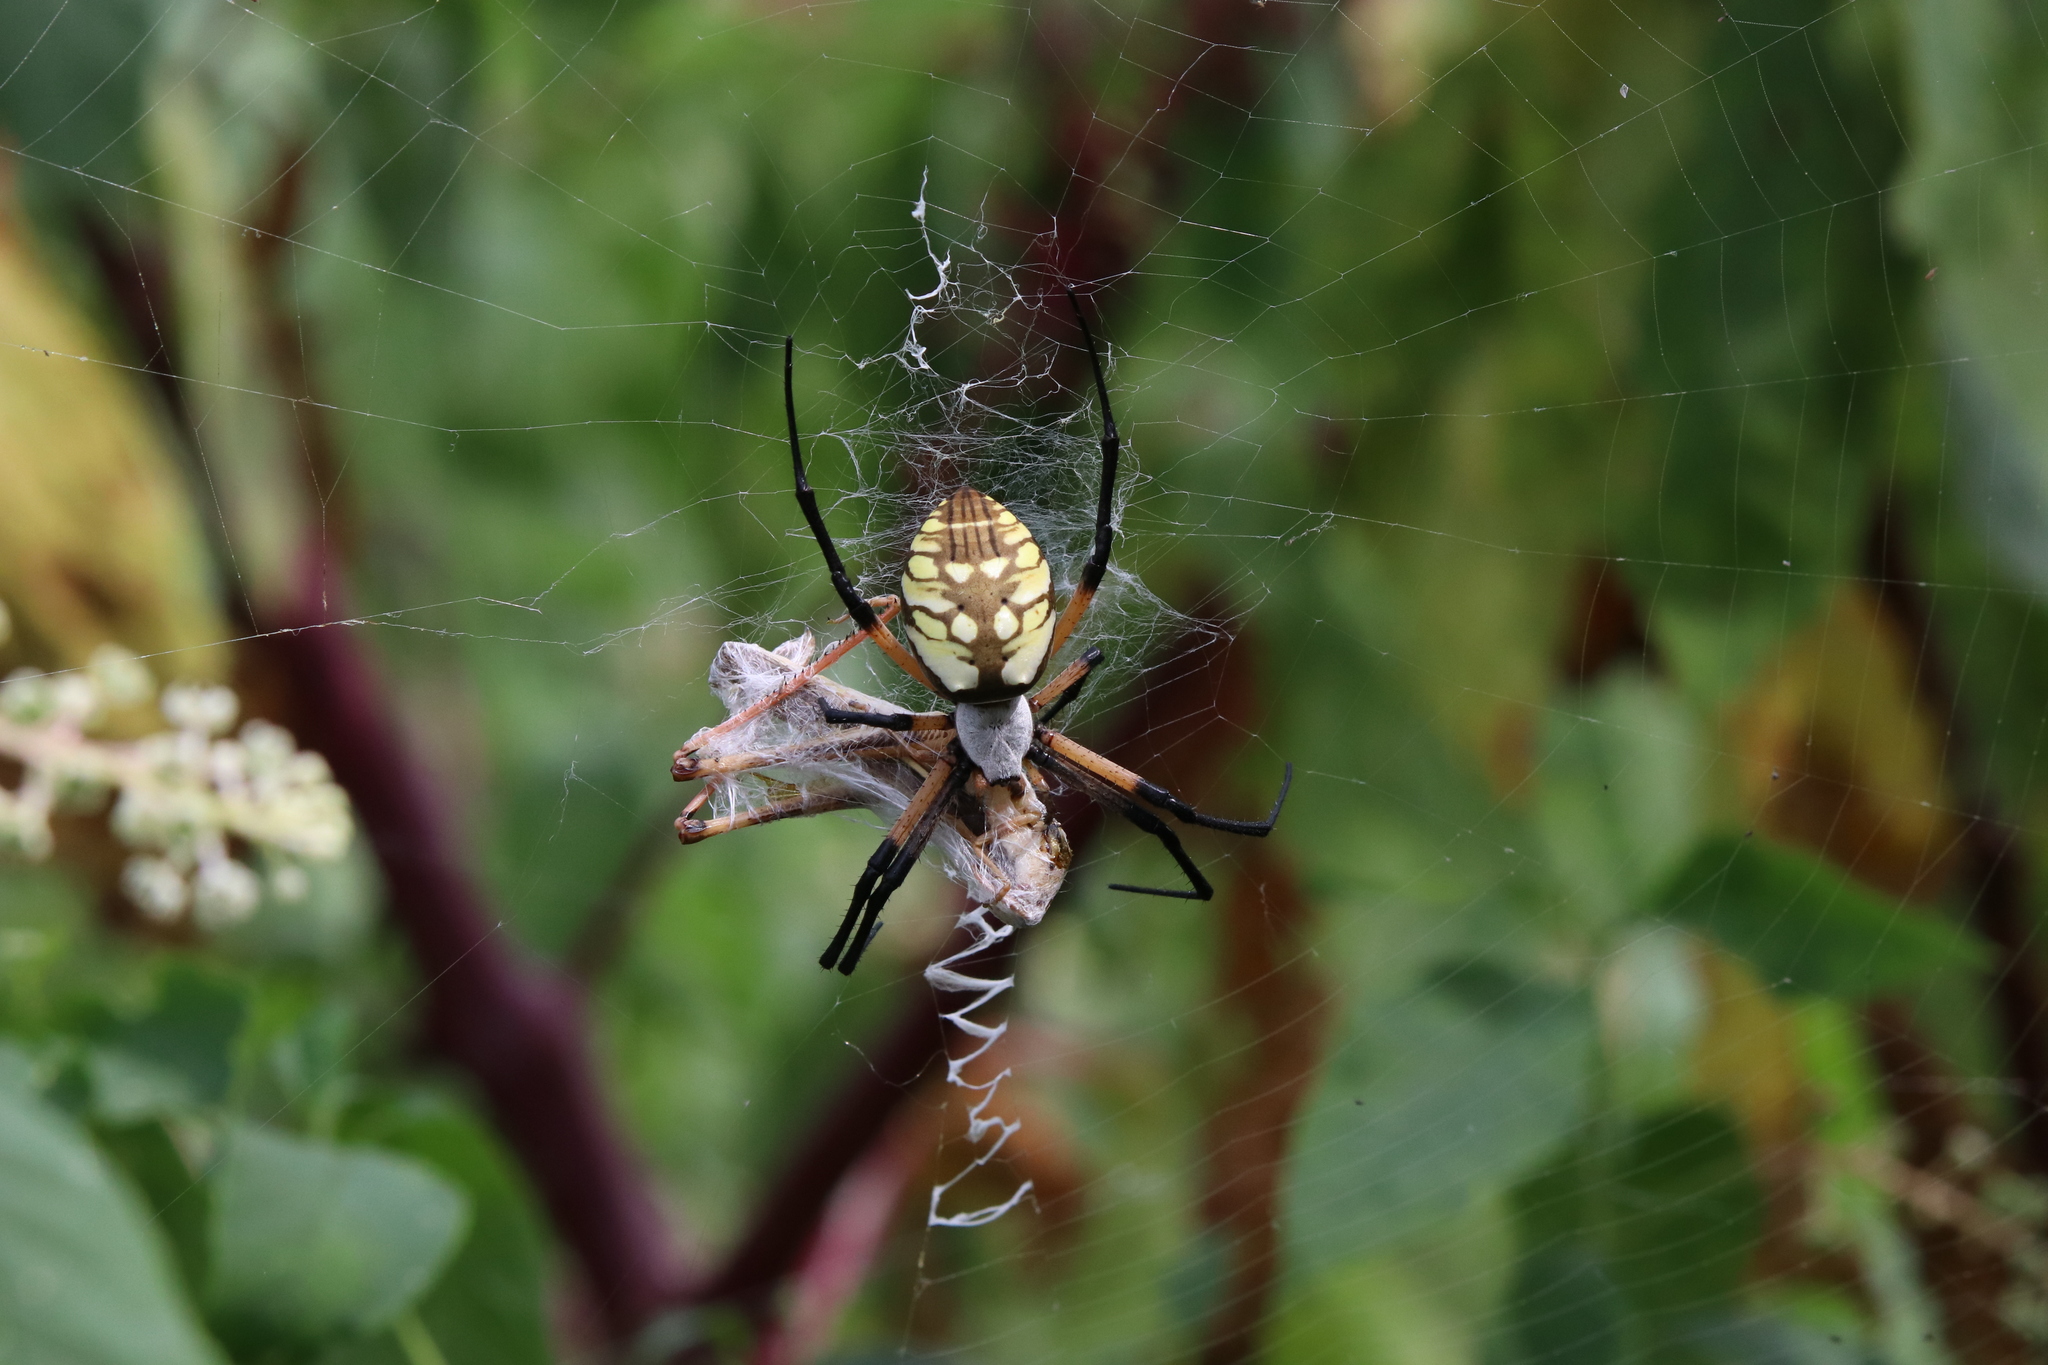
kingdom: Animalia
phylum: Arthropoda
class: Arachnida
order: Araneae
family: Araneidae
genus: Argiope
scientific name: Argiope aurantia
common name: Orb weavers
